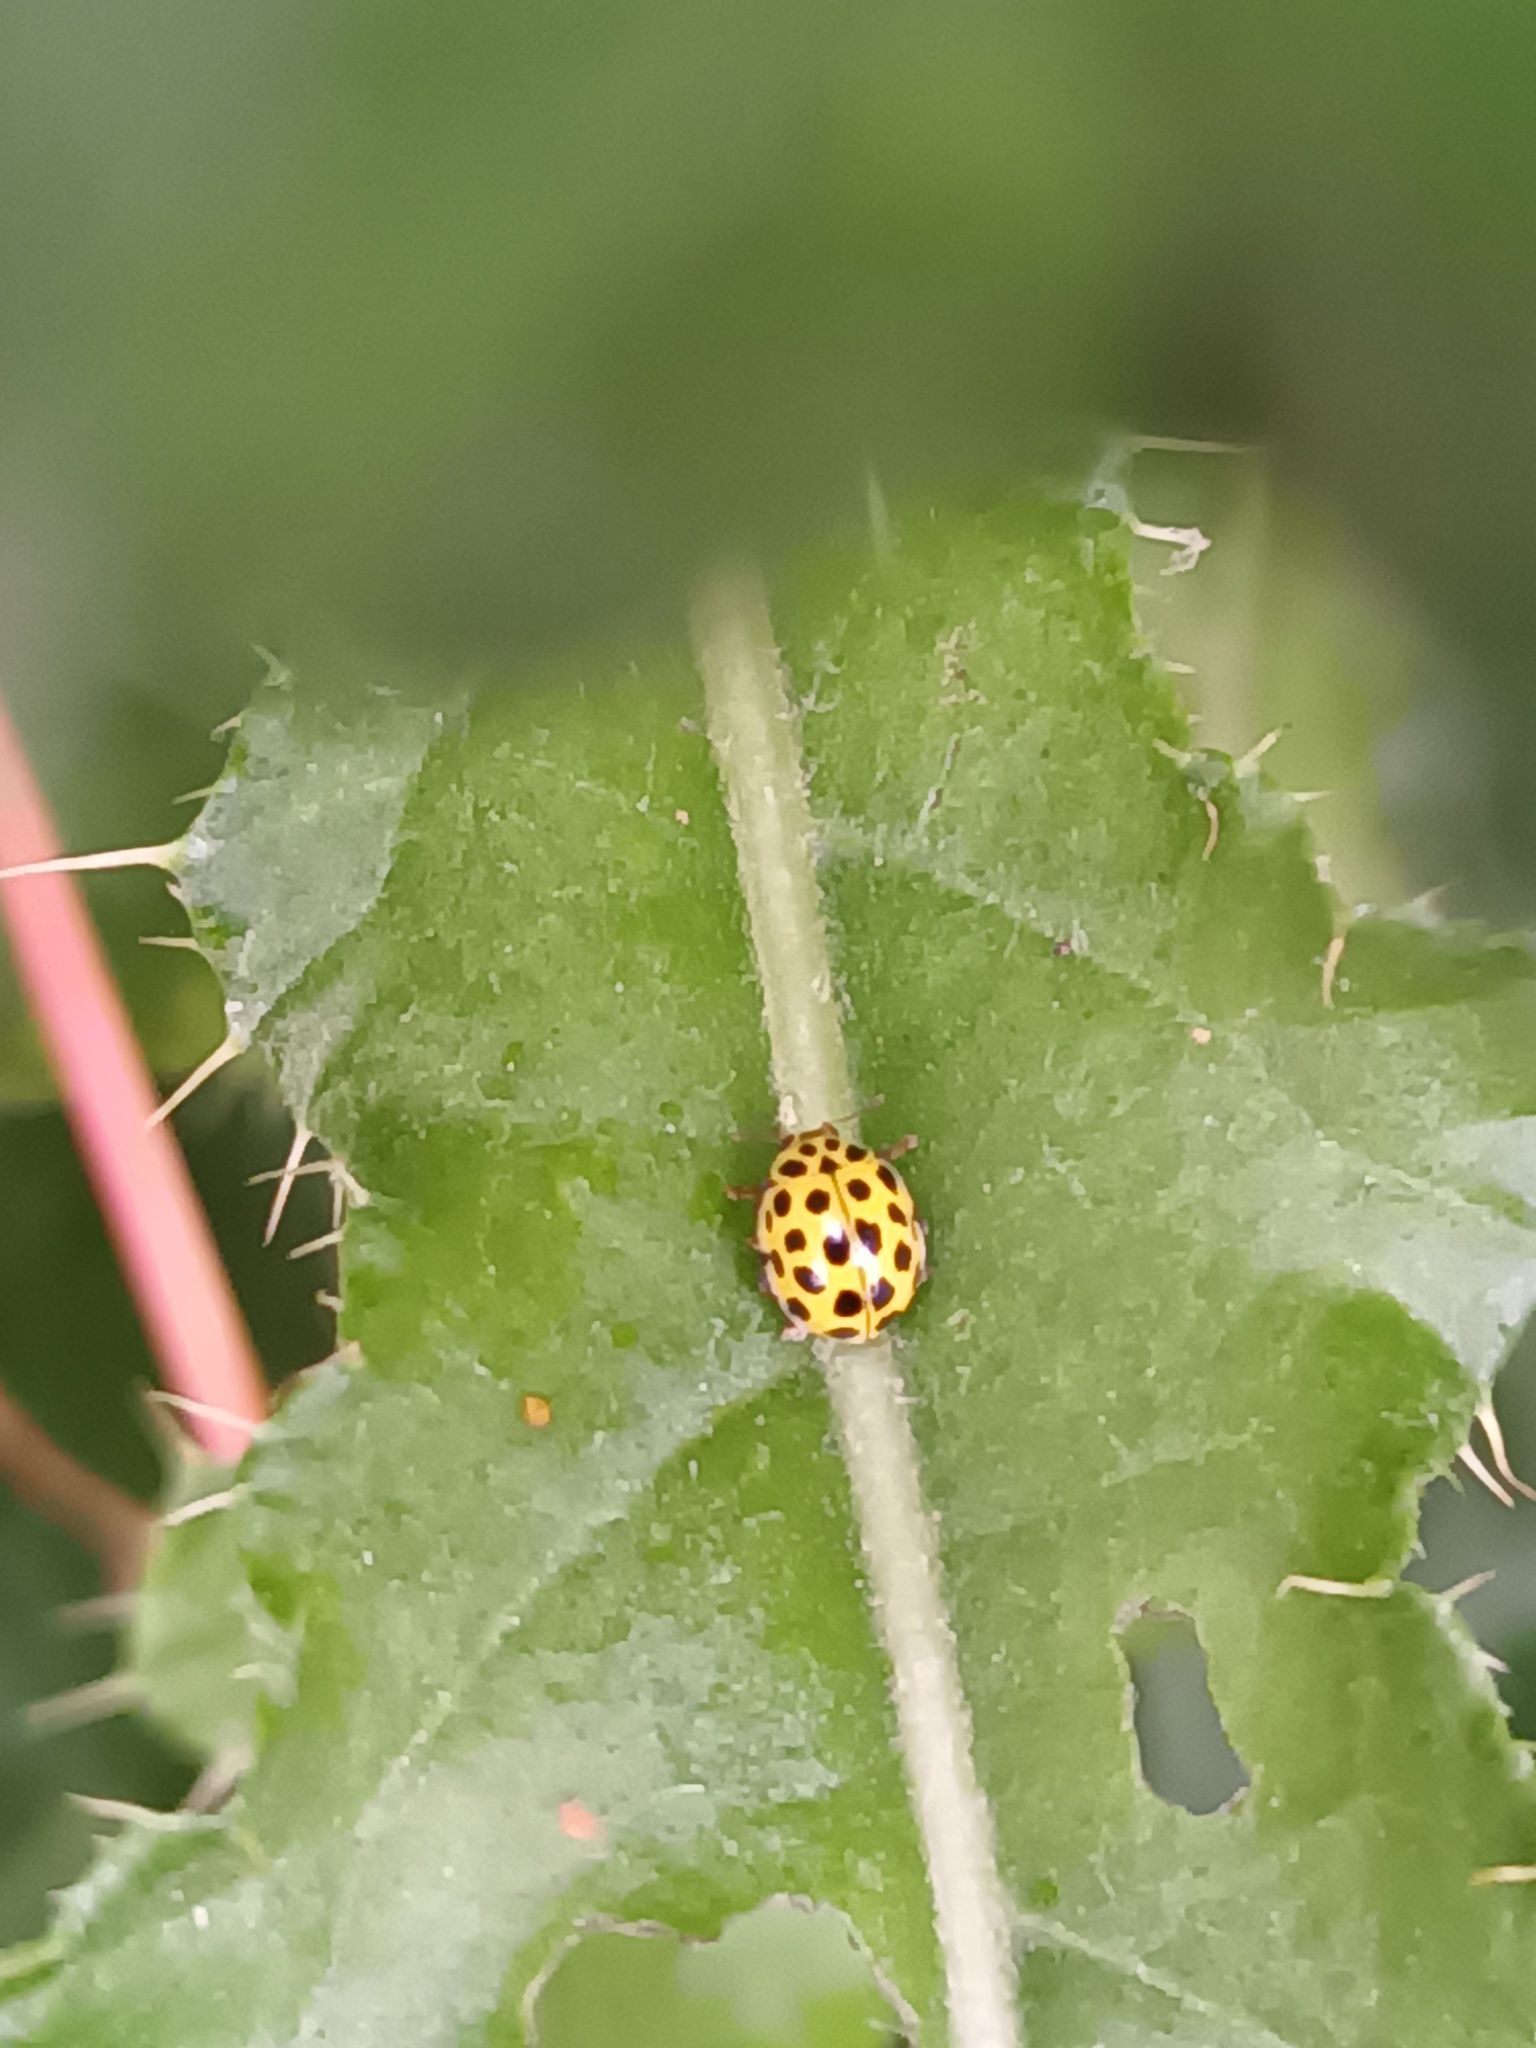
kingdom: Animalia
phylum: Arthropoda
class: Insecta
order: Coleoptera
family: Coccinellidae
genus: Psyllobora
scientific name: Psyllobora vigintiduopunctata
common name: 22-spot ladybird
